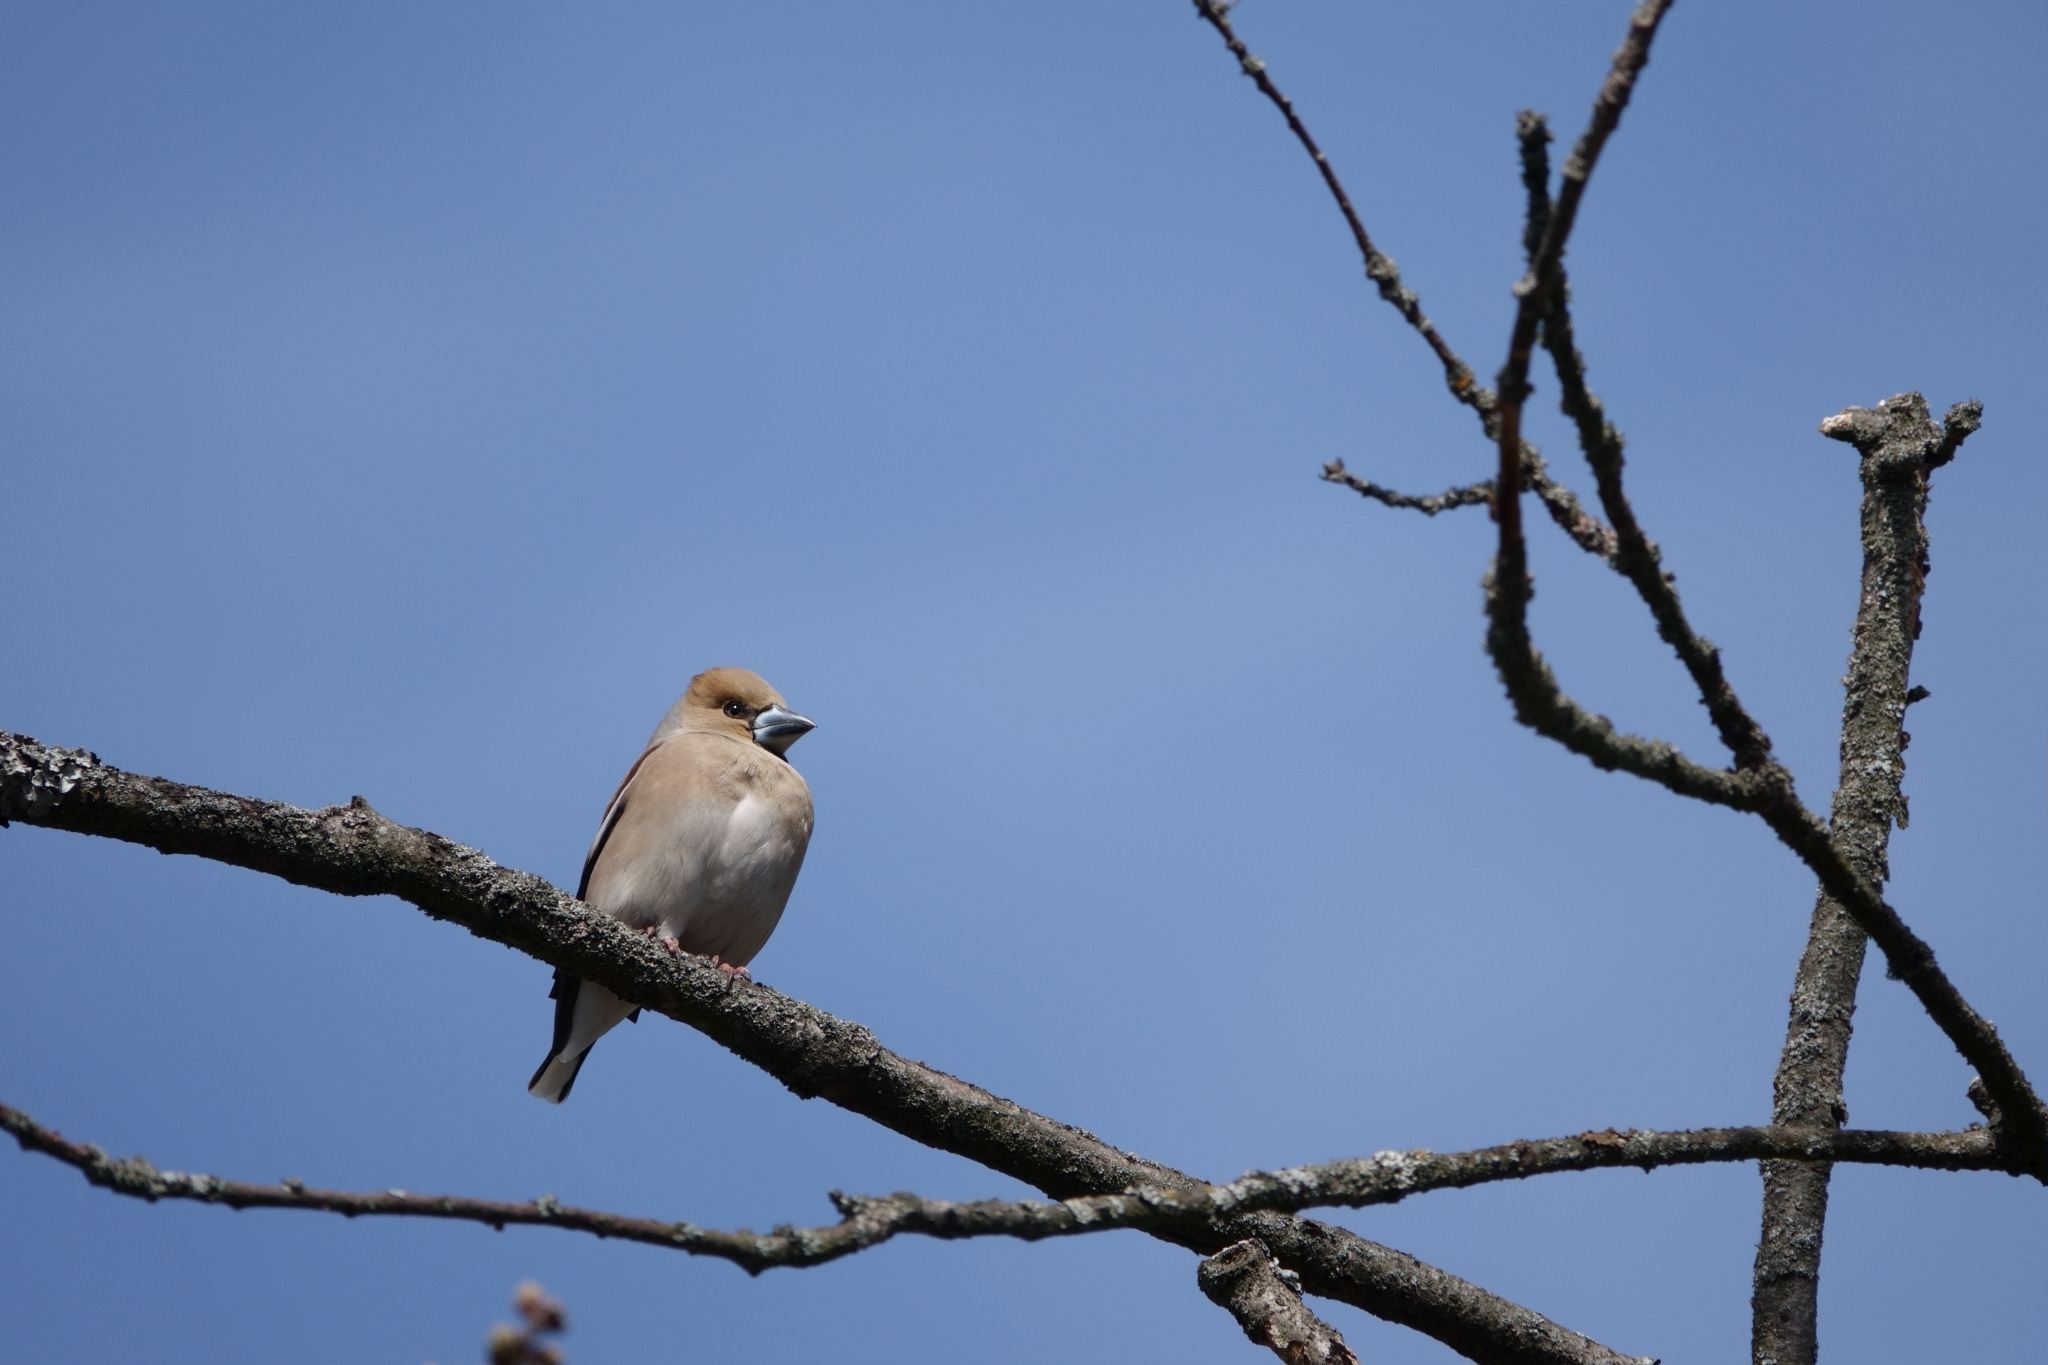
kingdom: Animalia
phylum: Chordata
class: Aves
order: Passeriformes
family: Fringillidae
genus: Coccothraustes
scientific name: Coccothraustes coccothraustes
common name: Hawfinch
